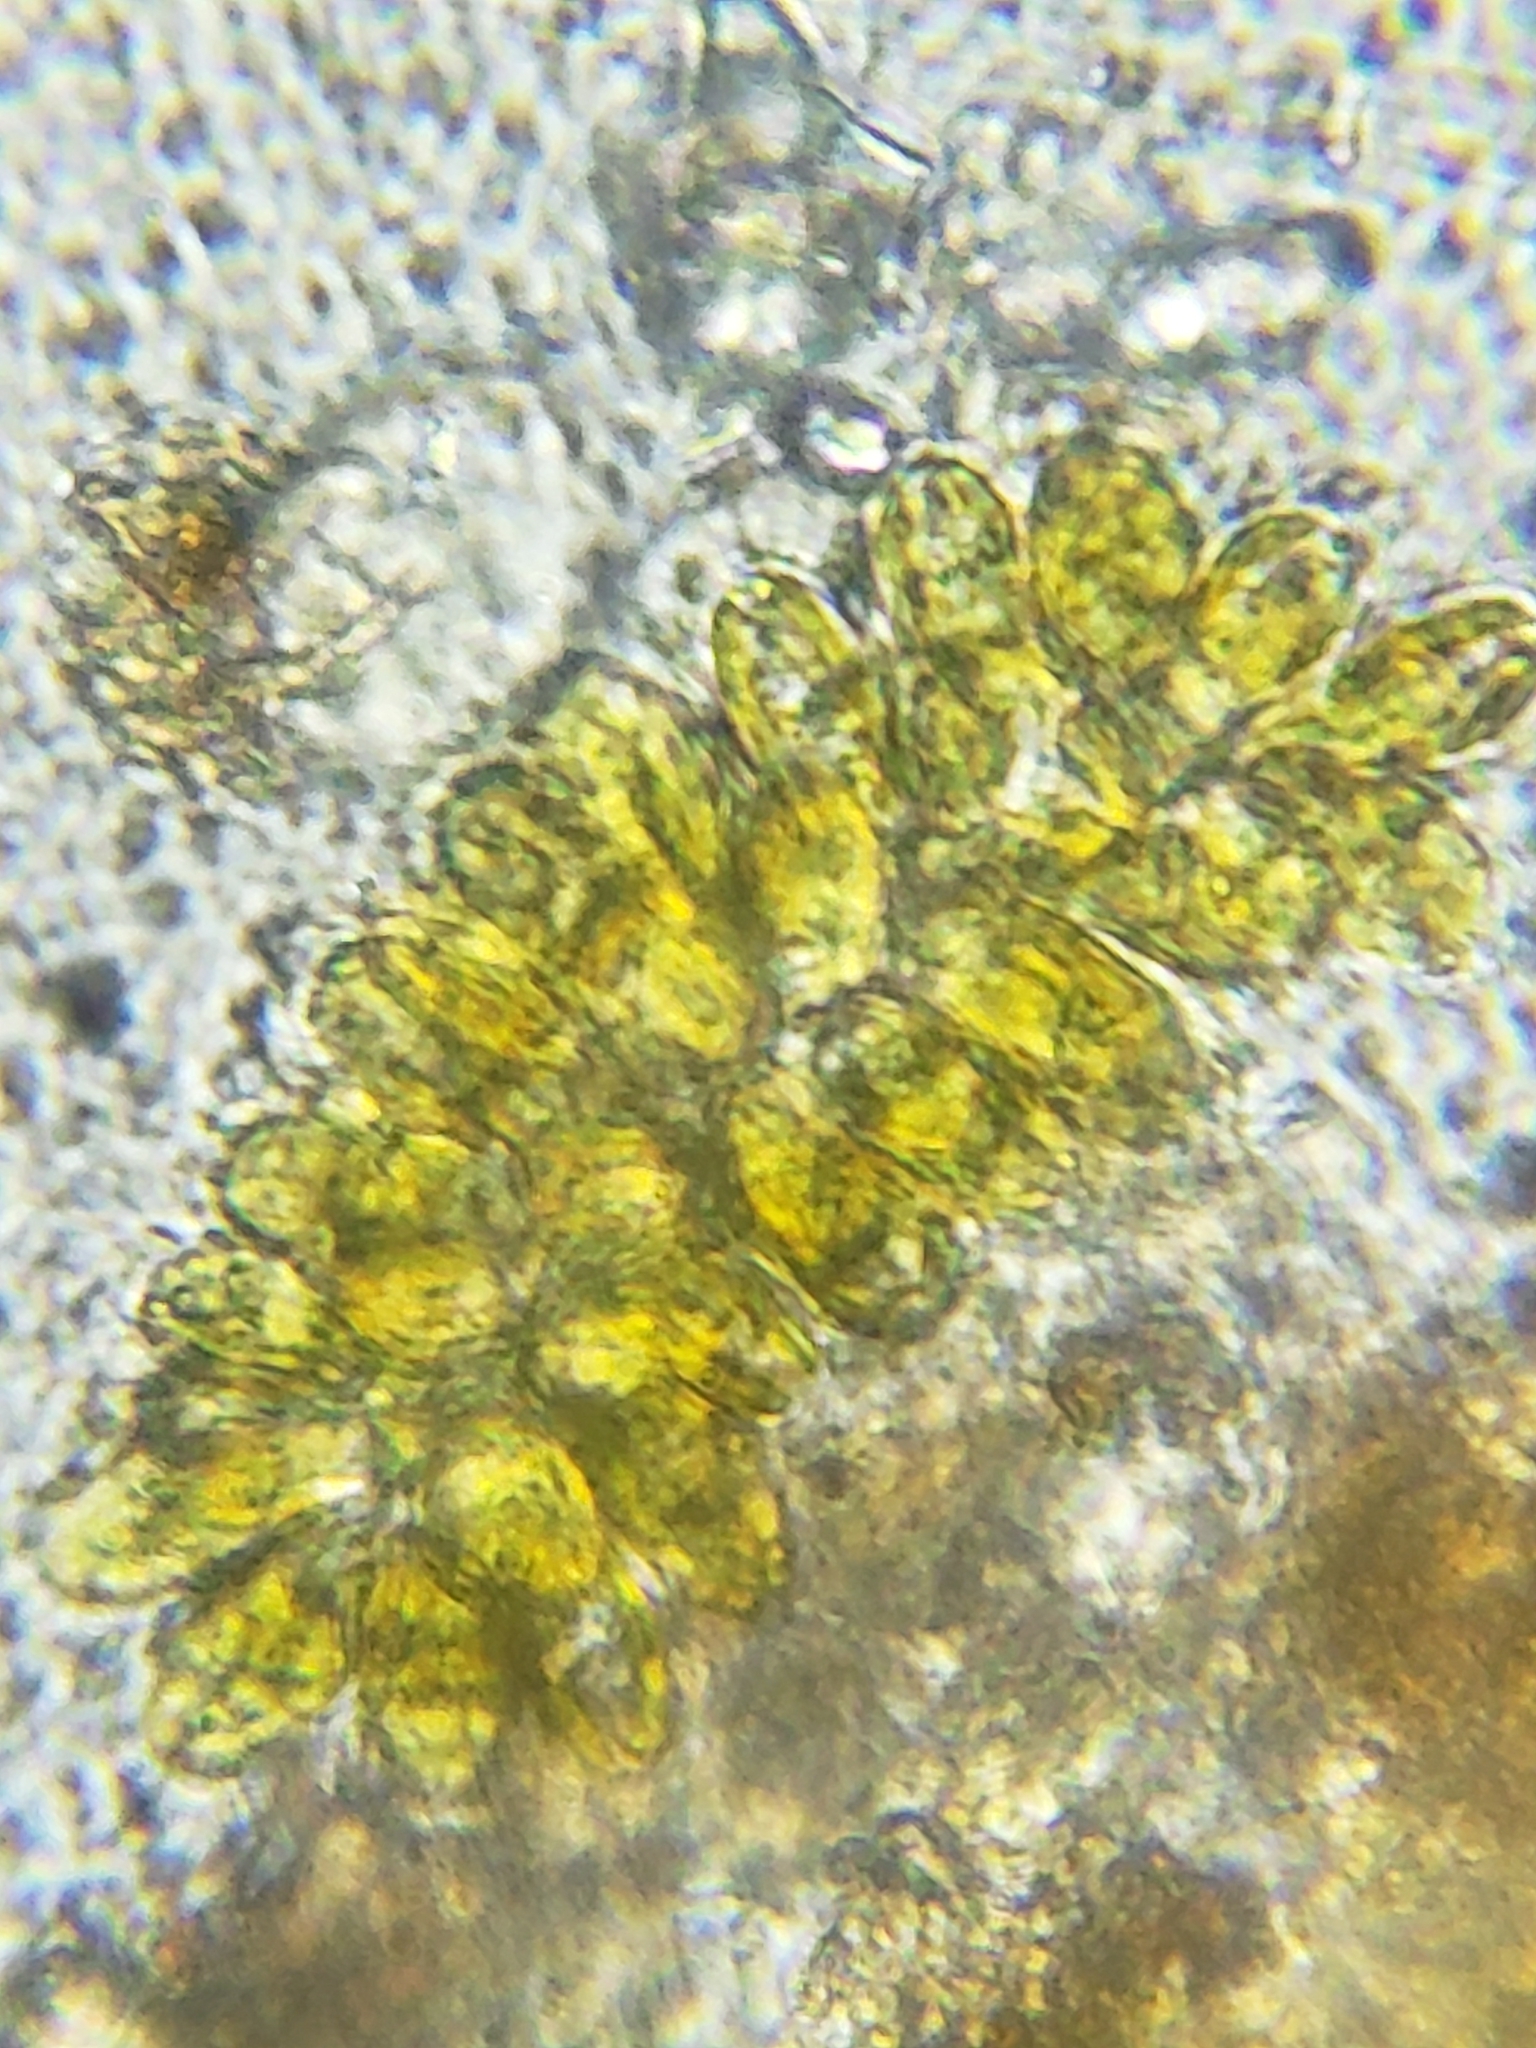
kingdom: Chromista
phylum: Ochrophyta
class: Synurophyceae
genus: Synura
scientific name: Synura
